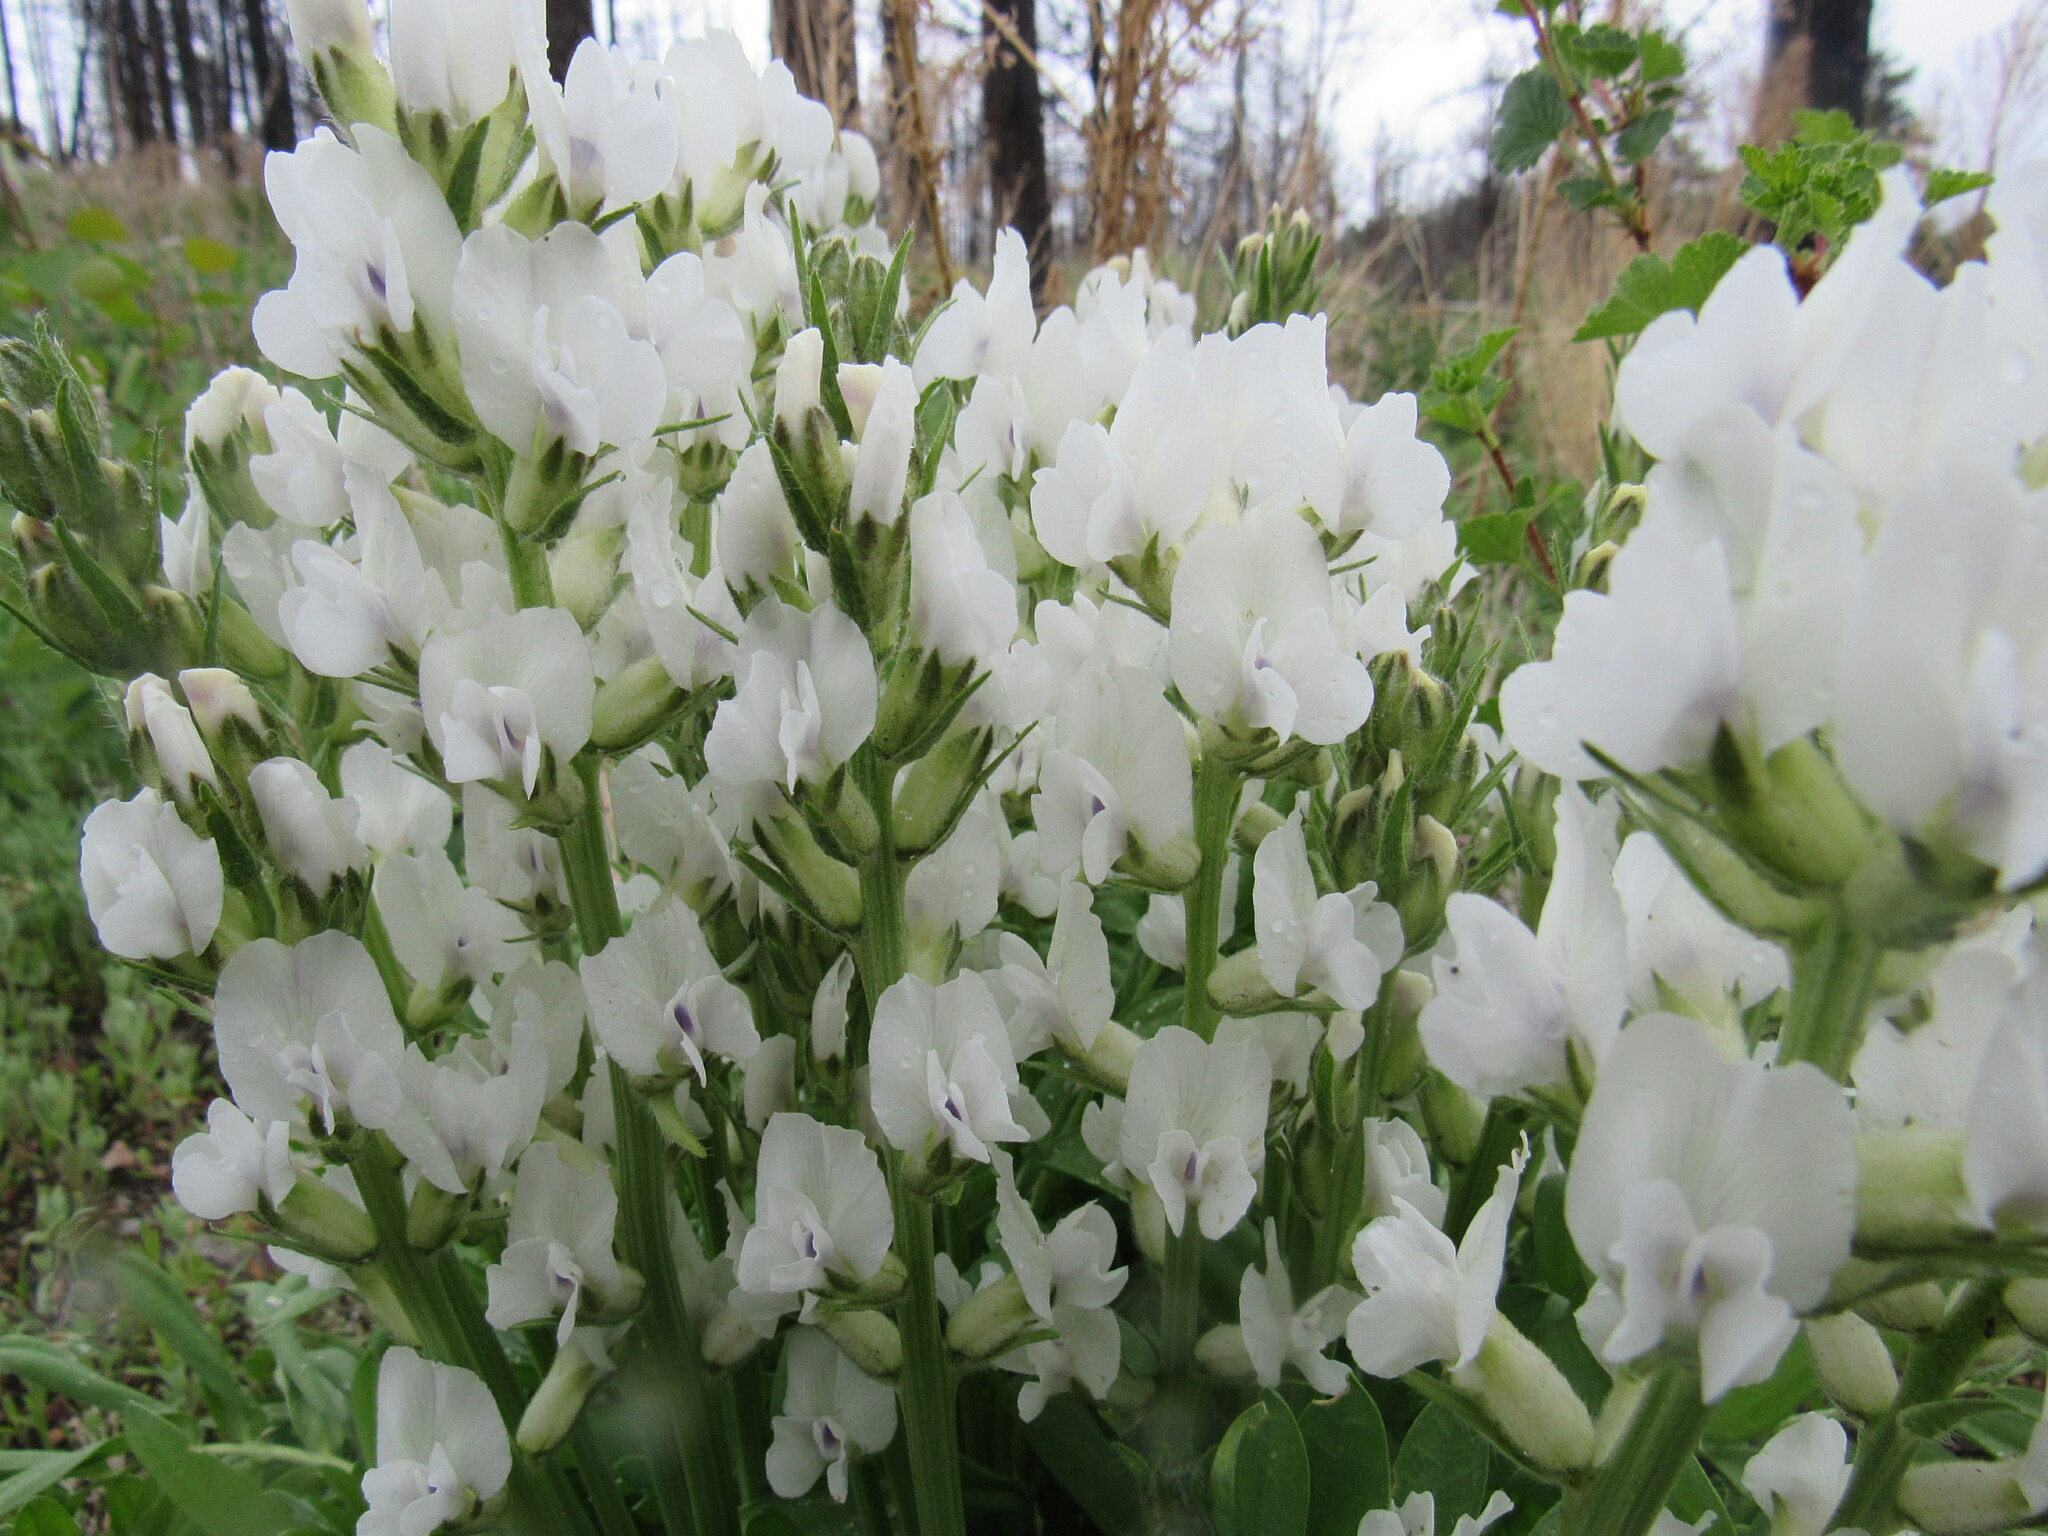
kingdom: Plantae
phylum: Tracheophyta
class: Magnoliopsida
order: Fabales
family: Fabaceae
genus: Oxytropis
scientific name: Oxytropis sericea
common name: Silky locoweed
